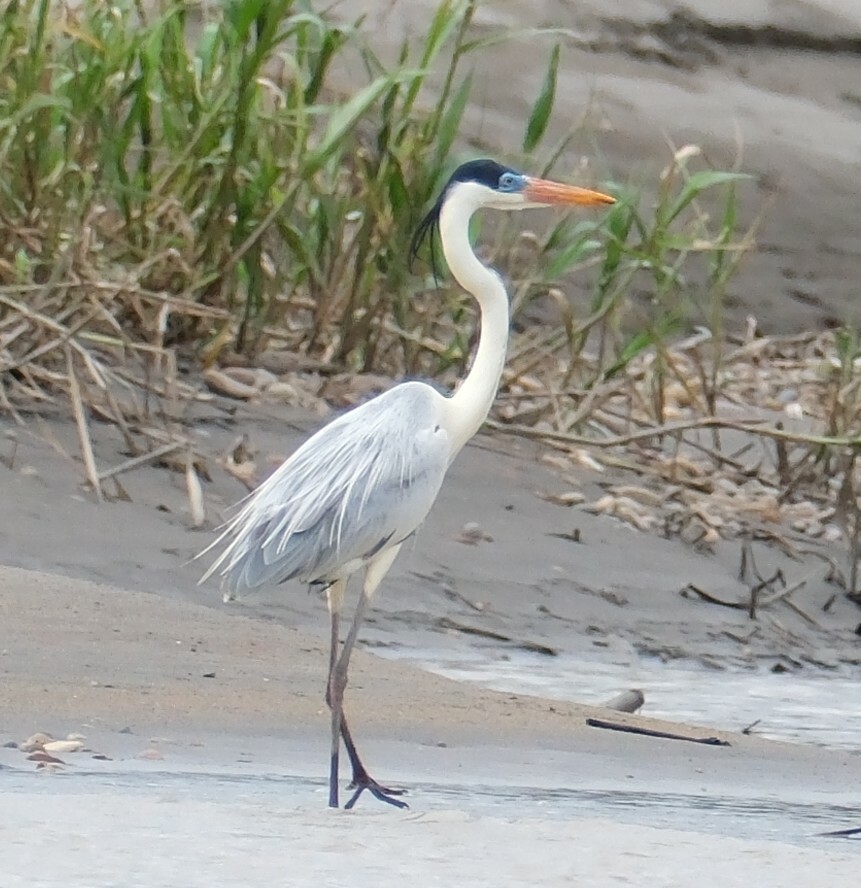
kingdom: Animalia
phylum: Chordata
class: Aves
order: Pelecaniformes
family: Ardeidae
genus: Ardea
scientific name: Ardea cocoi
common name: Cocoi heron
